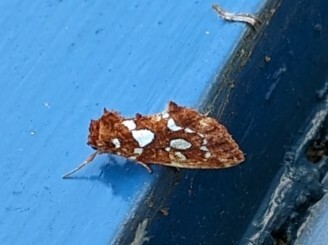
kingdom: Animalia
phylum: Arthropoda
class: Insecta
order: Lepidoptera
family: Noctuidae
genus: Callopistria
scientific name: Callopistria cordata
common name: Silver-spotted fern moth
